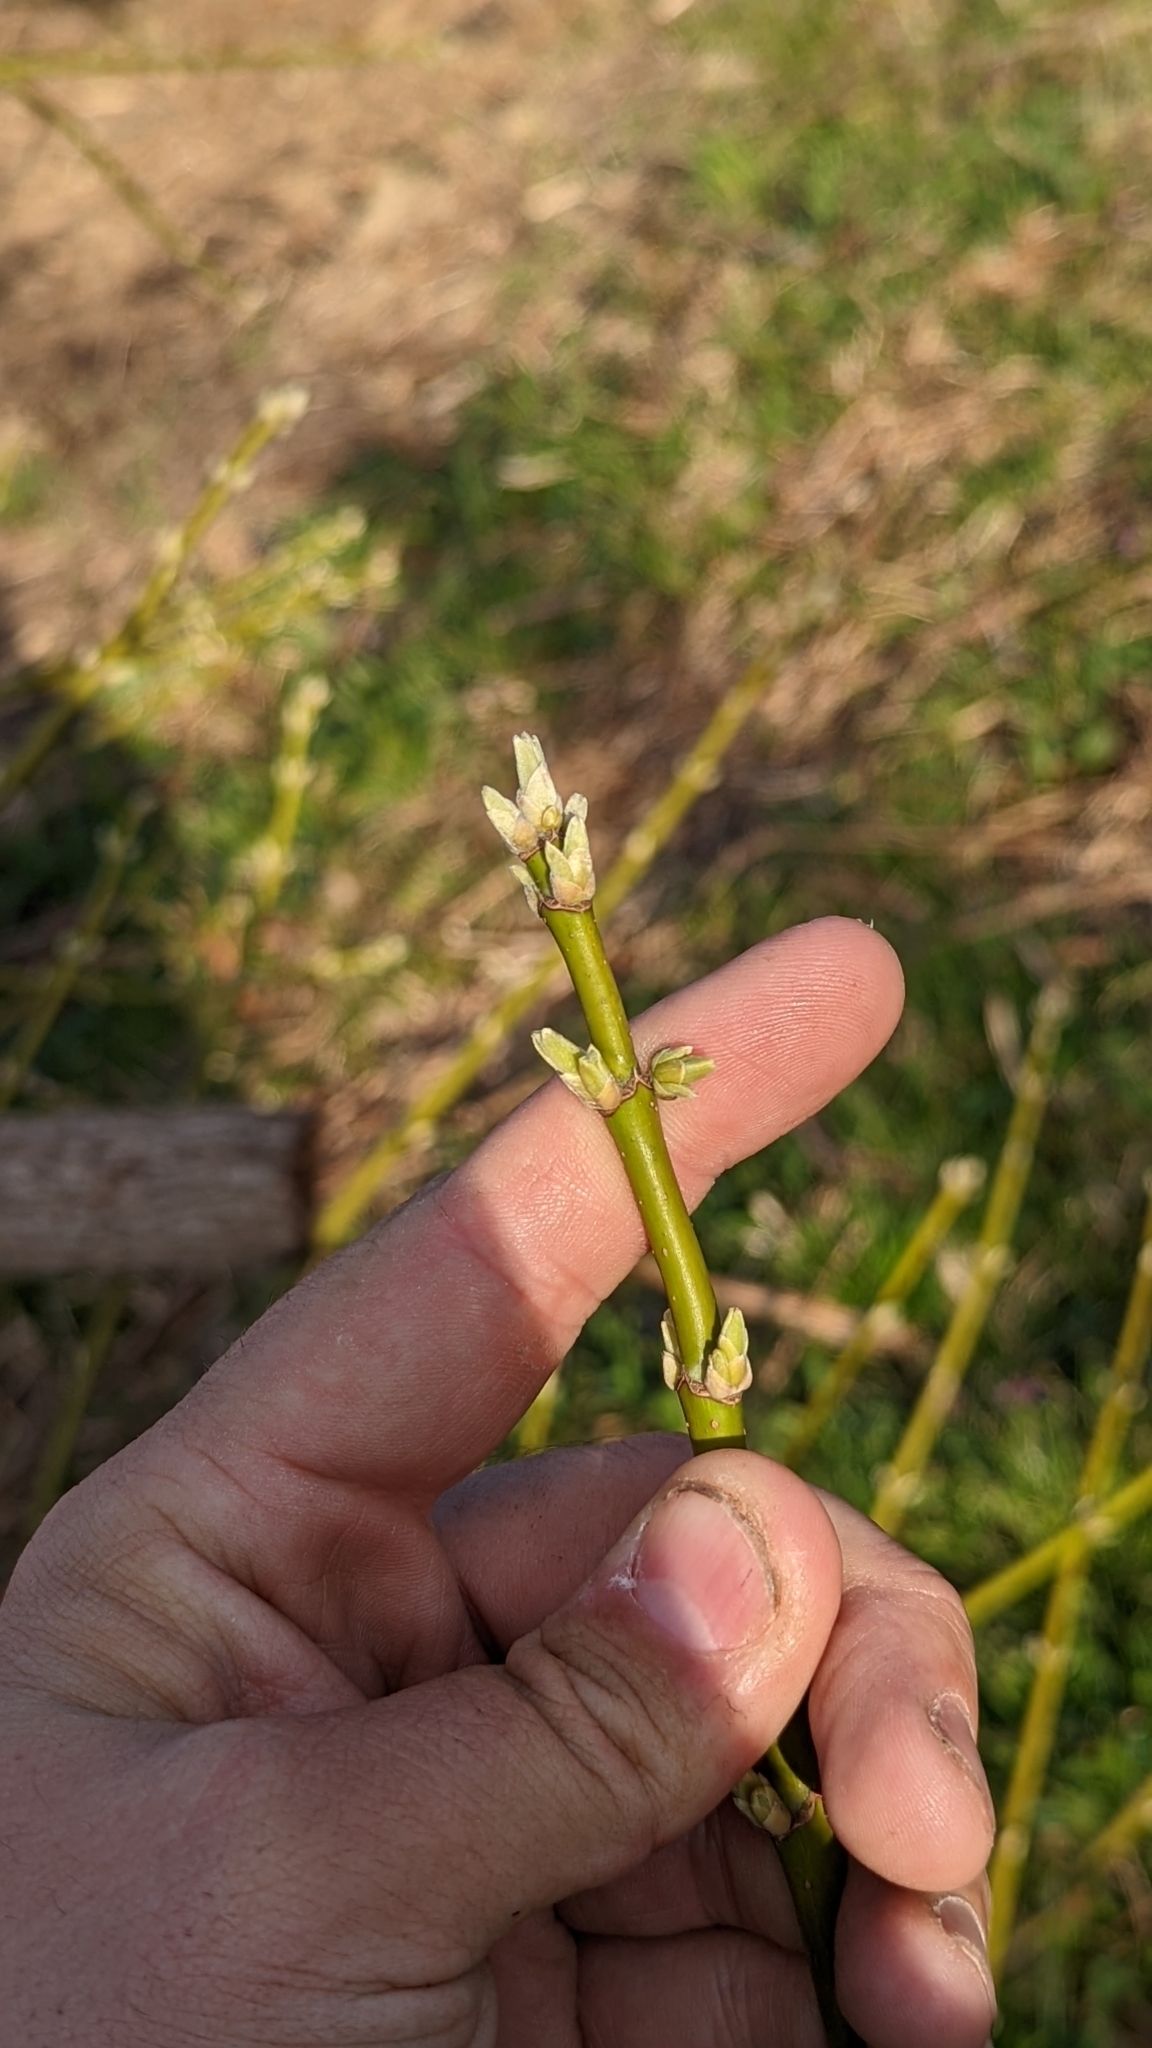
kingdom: Plantae
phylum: Tracheophyta
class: Magnoliopsida
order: Sapindales
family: Sapindaceae
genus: Acer
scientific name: Acer negundo
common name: Ashleaf maple
